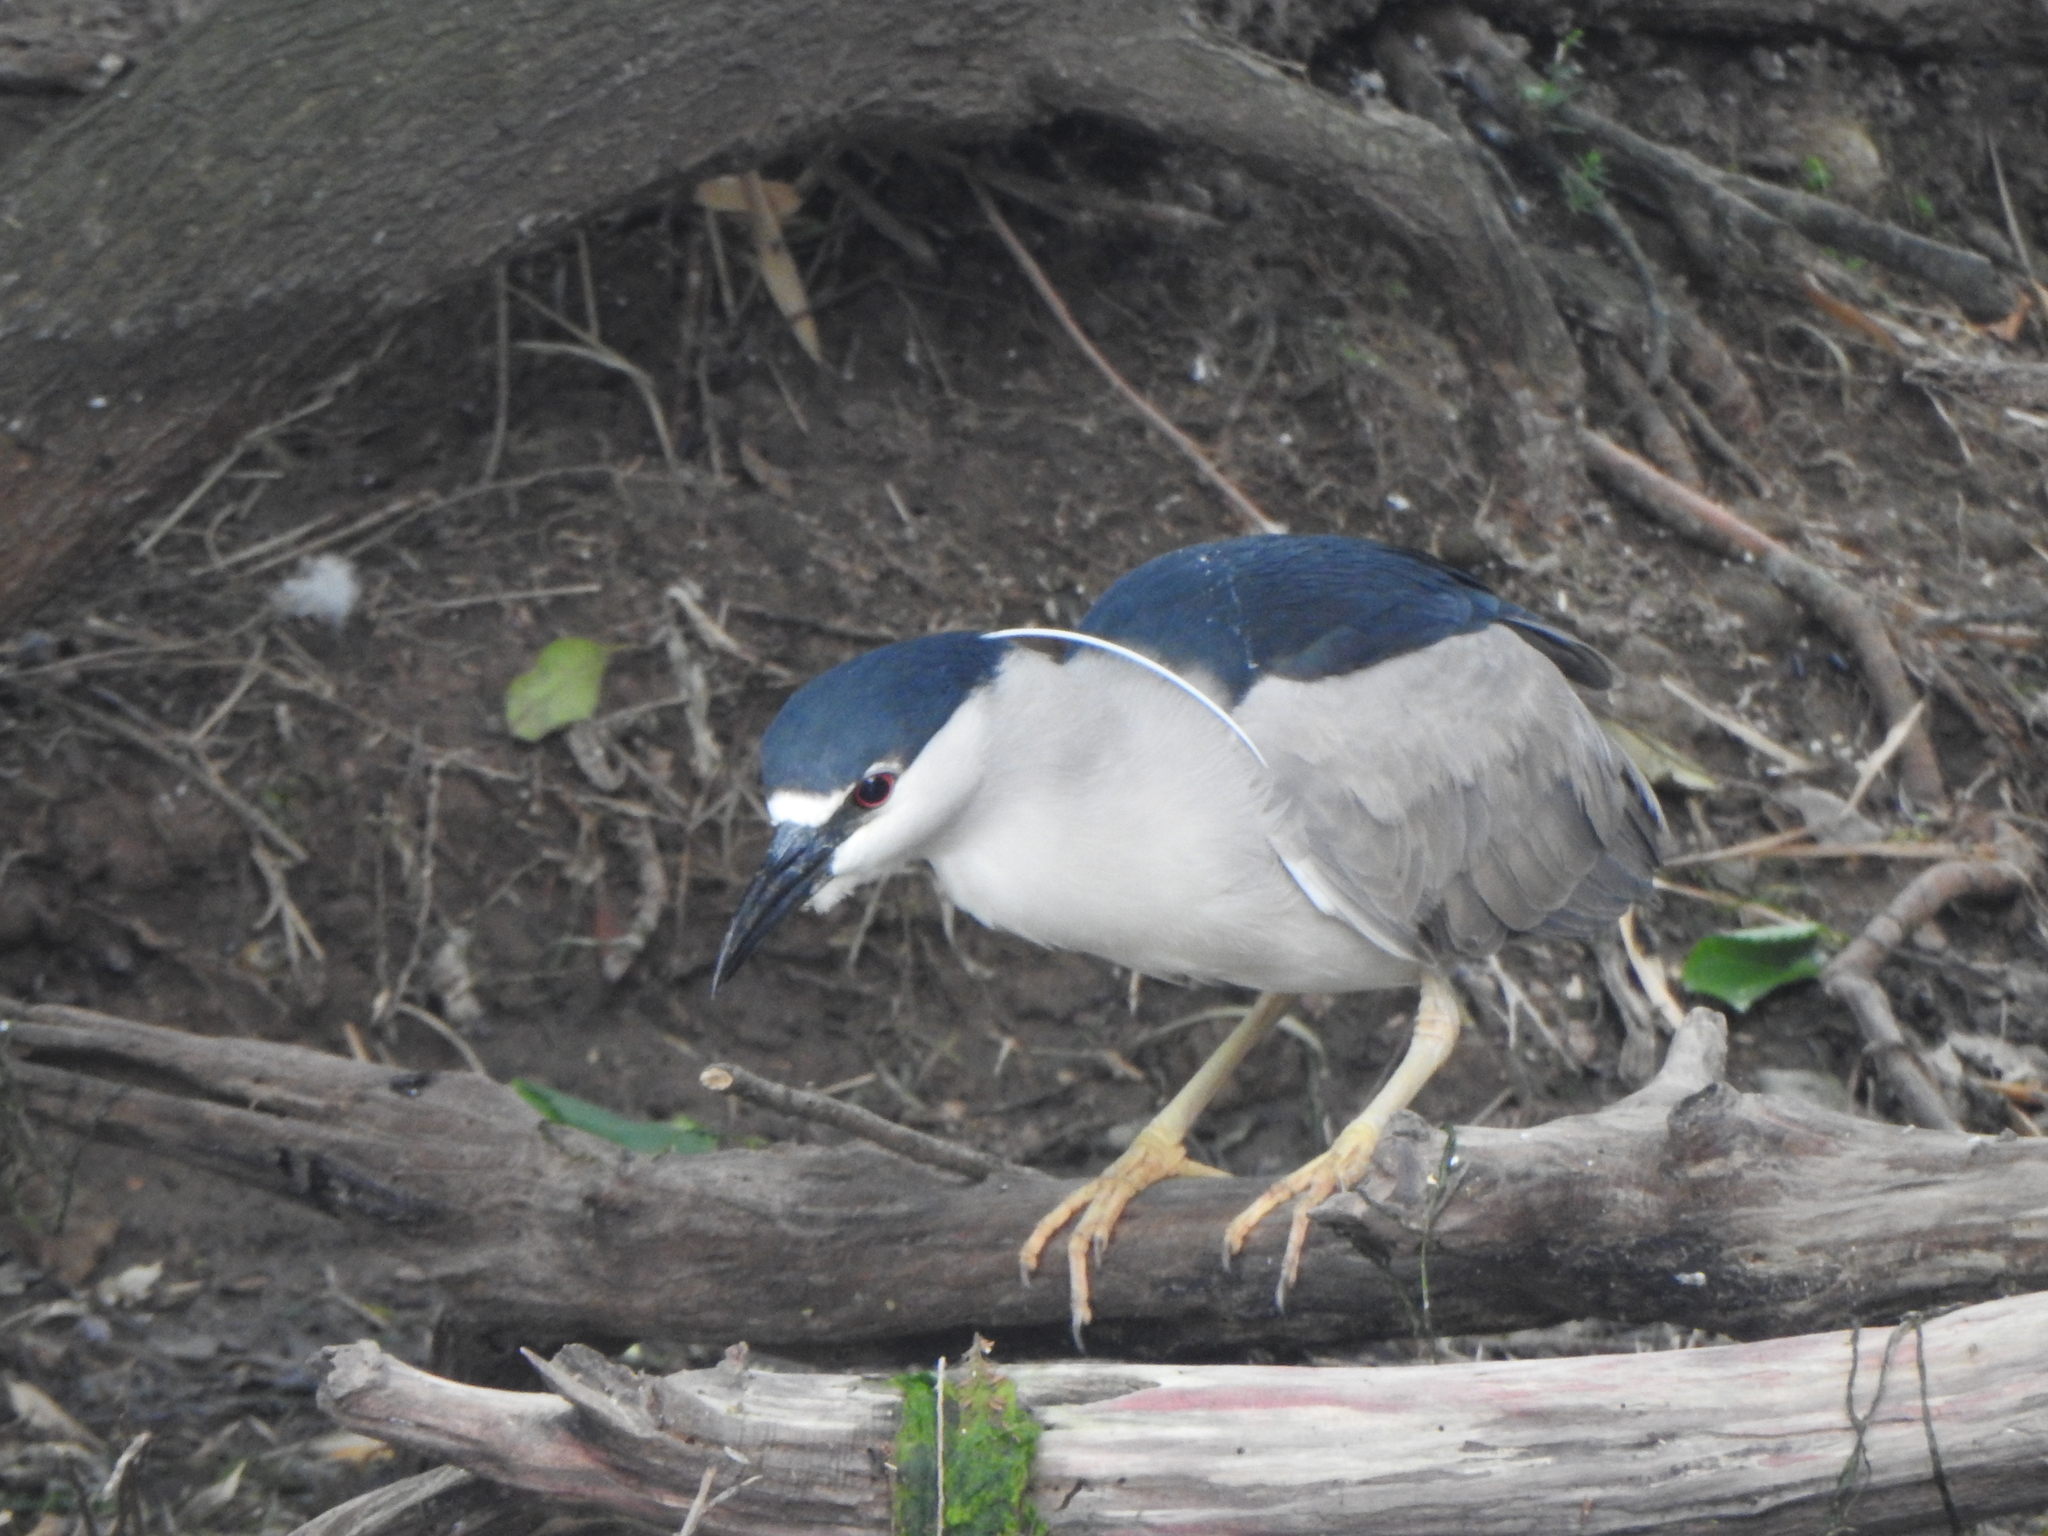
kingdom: Animalia
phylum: Chordata
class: Aves
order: Pelecaniformes
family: Ardeidae
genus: Nycticorax
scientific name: Nycticorax nycticorax
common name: Black-crowned night heron
